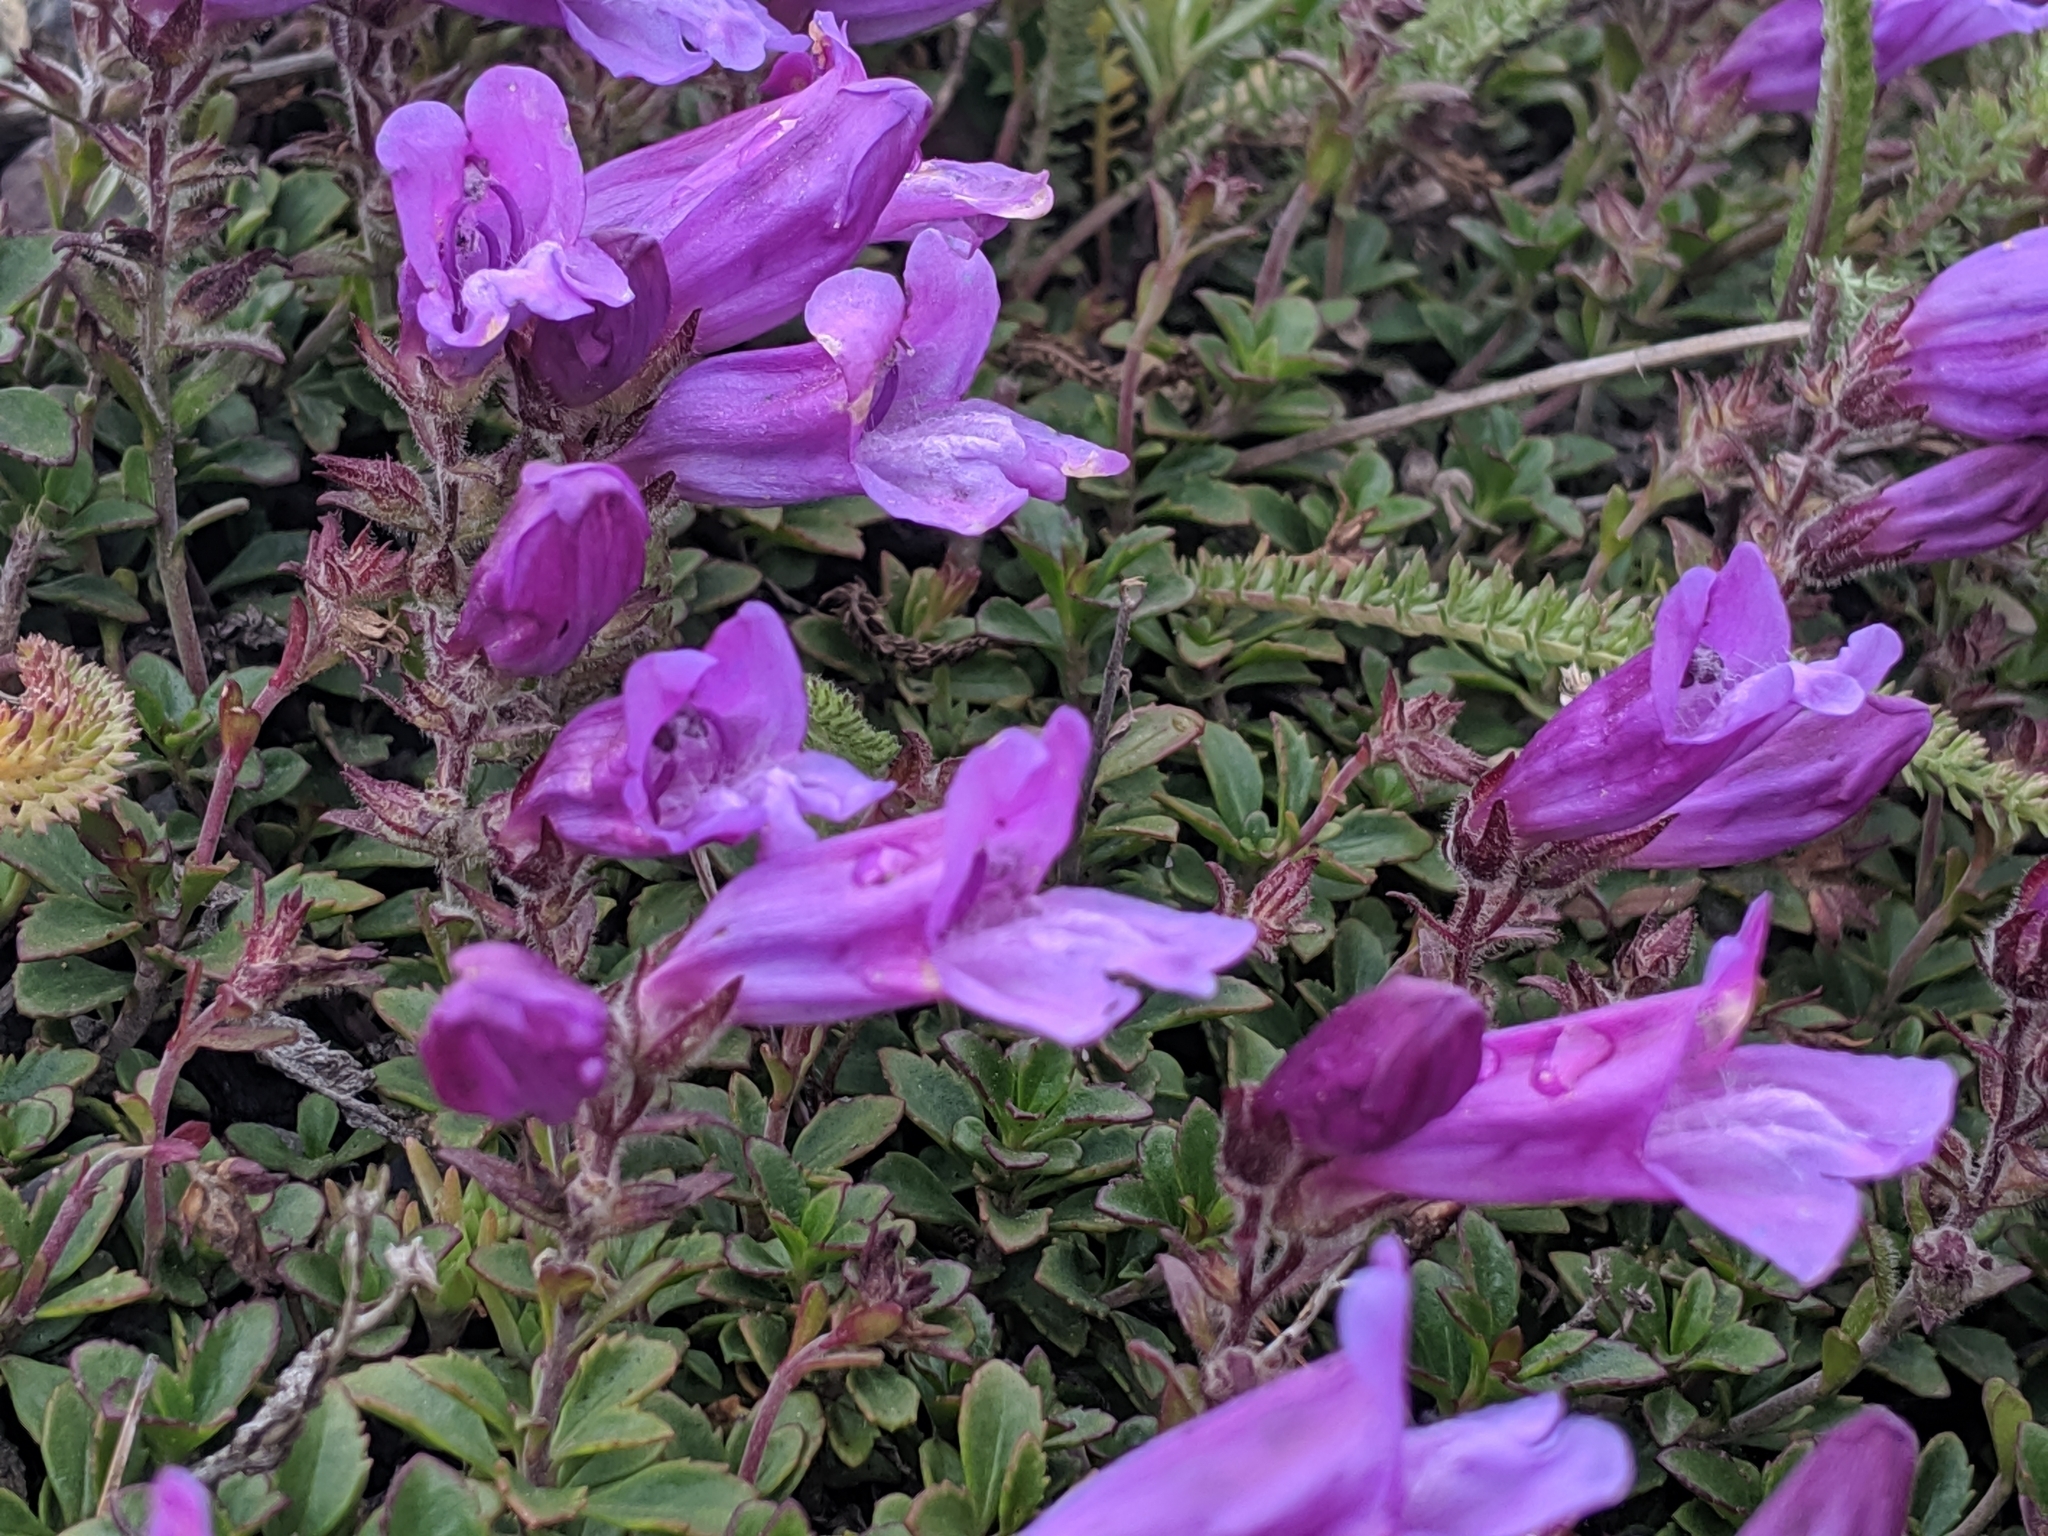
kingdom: Plantae
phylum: Tracheophyta
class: Magnoliopsida
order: Lamiales
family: Plantaginaceae
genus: Penstemon
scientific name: Penstemon davidsonii
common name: Davidson's penstemon
